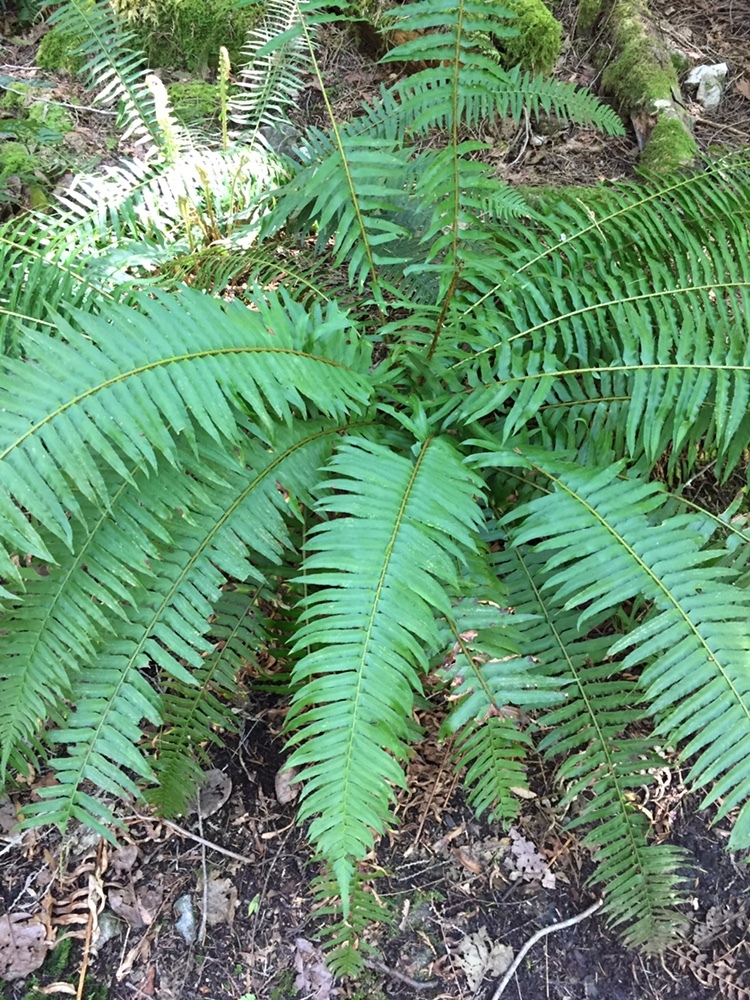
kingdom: Plantae
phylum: Tracheophyta
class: Polypodiopsida
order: Polypodiales
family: Dryopteridaceae
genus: Polystichum
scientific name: Polystichum munitum
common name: Western sword-fern
